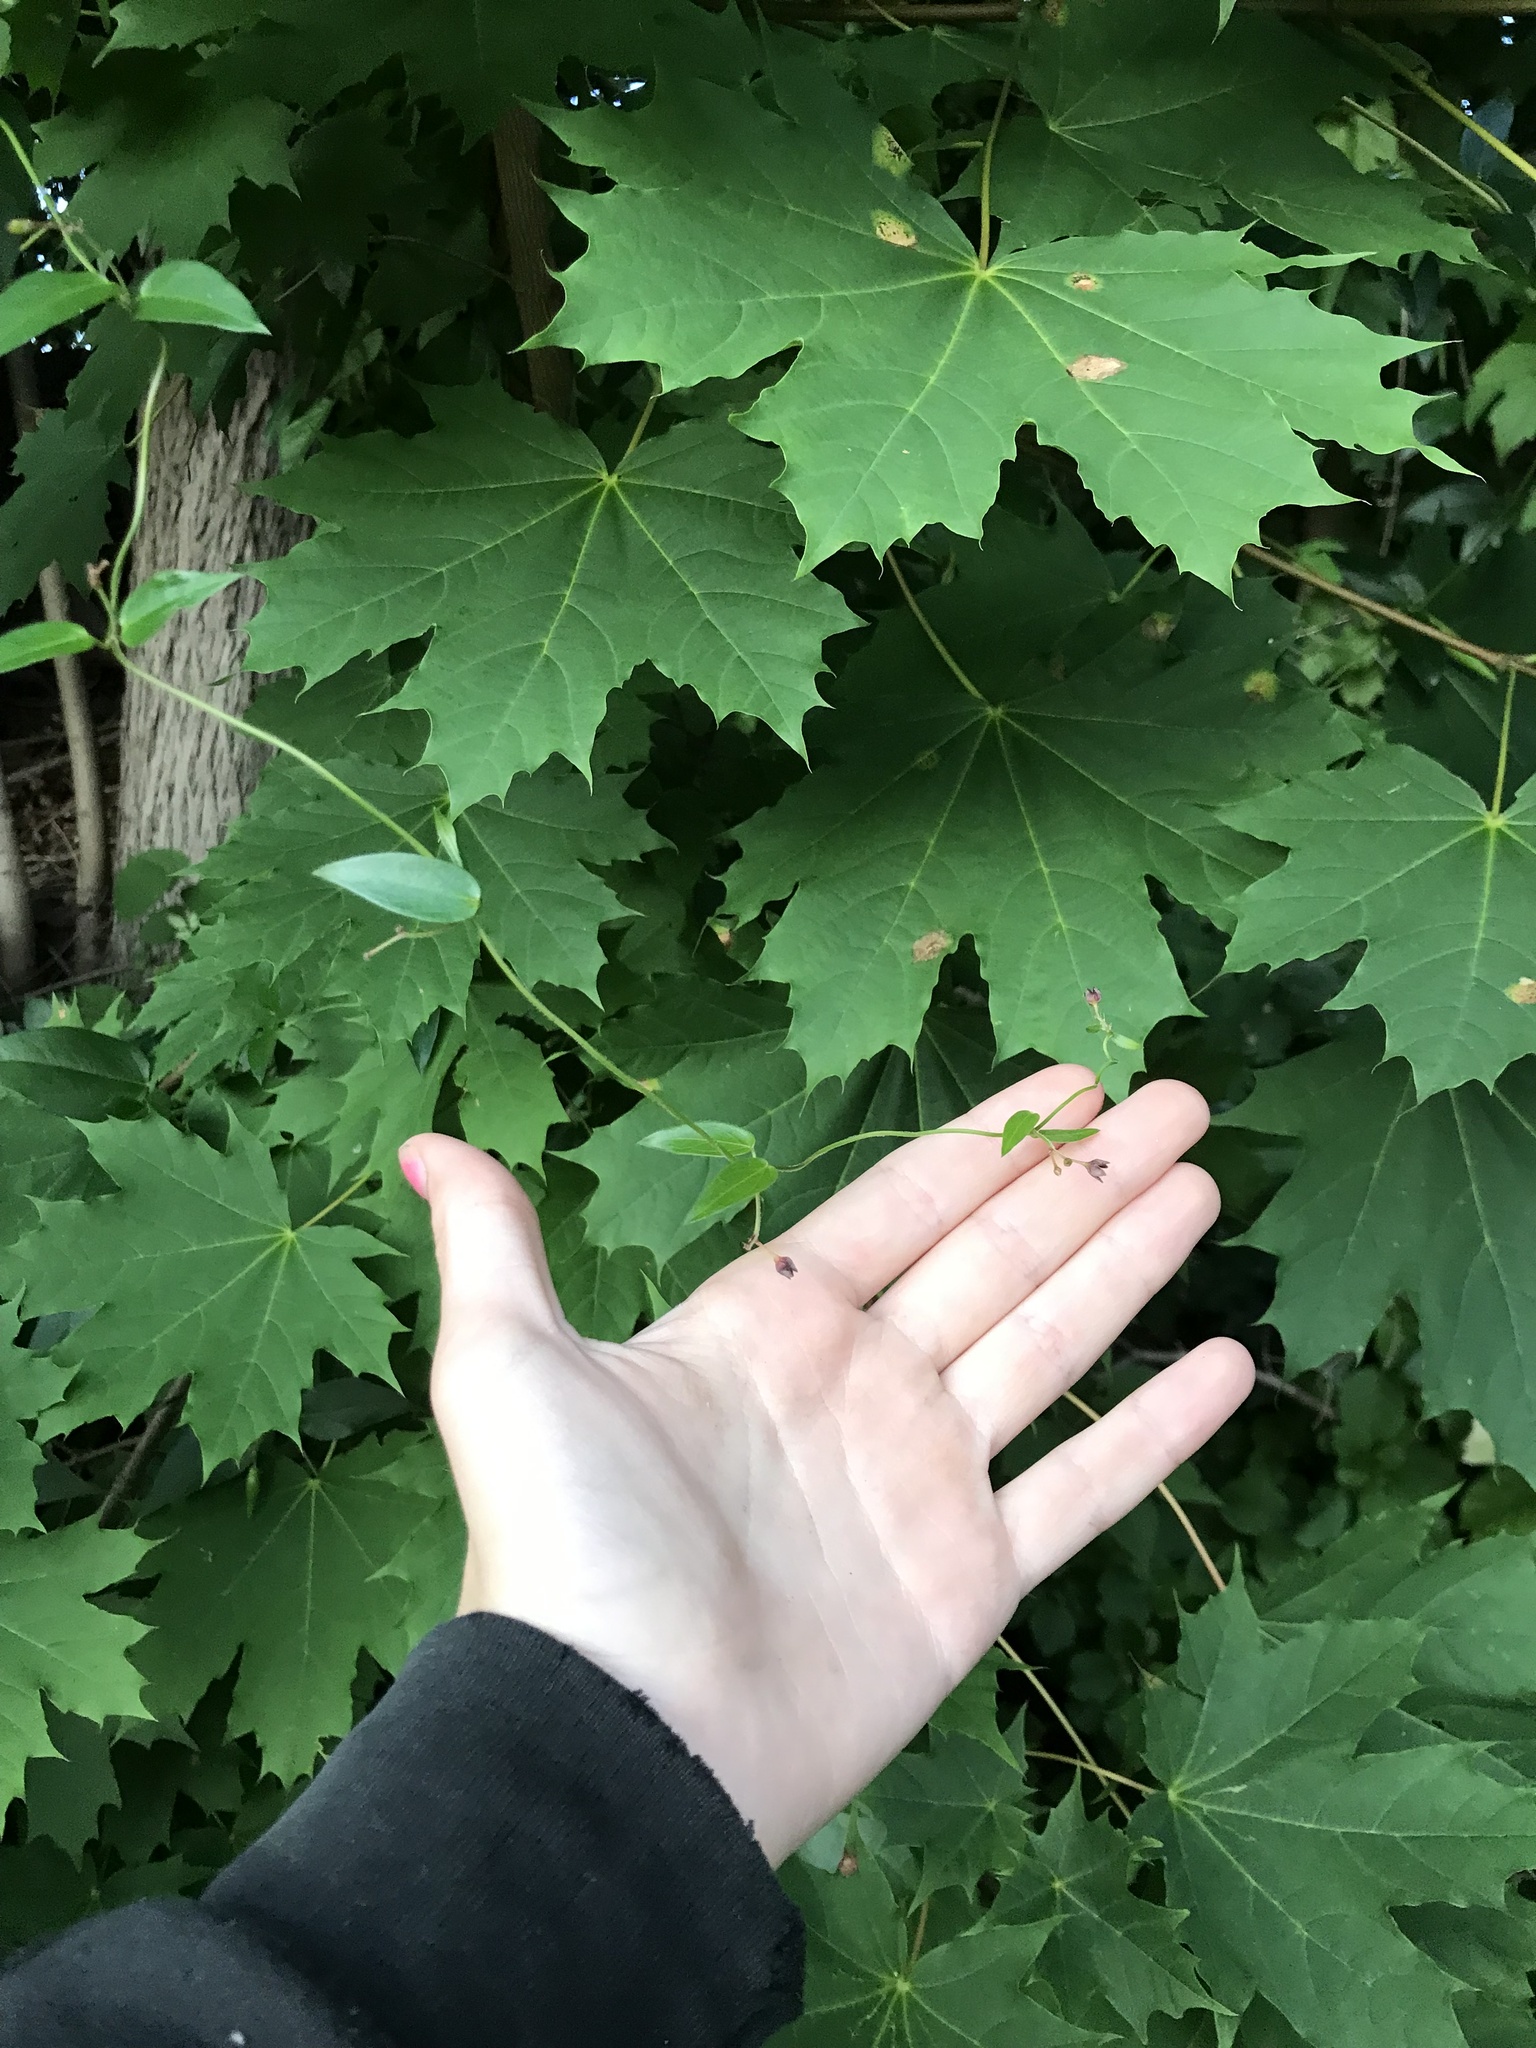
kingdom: Plantae
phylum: Tracheophyta
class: Magnoliopsida
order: Gentianales
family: Apocynaceae
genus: Vincetoxicum
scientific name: Vincetoxicum nigrum
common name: Black swallow-wort
